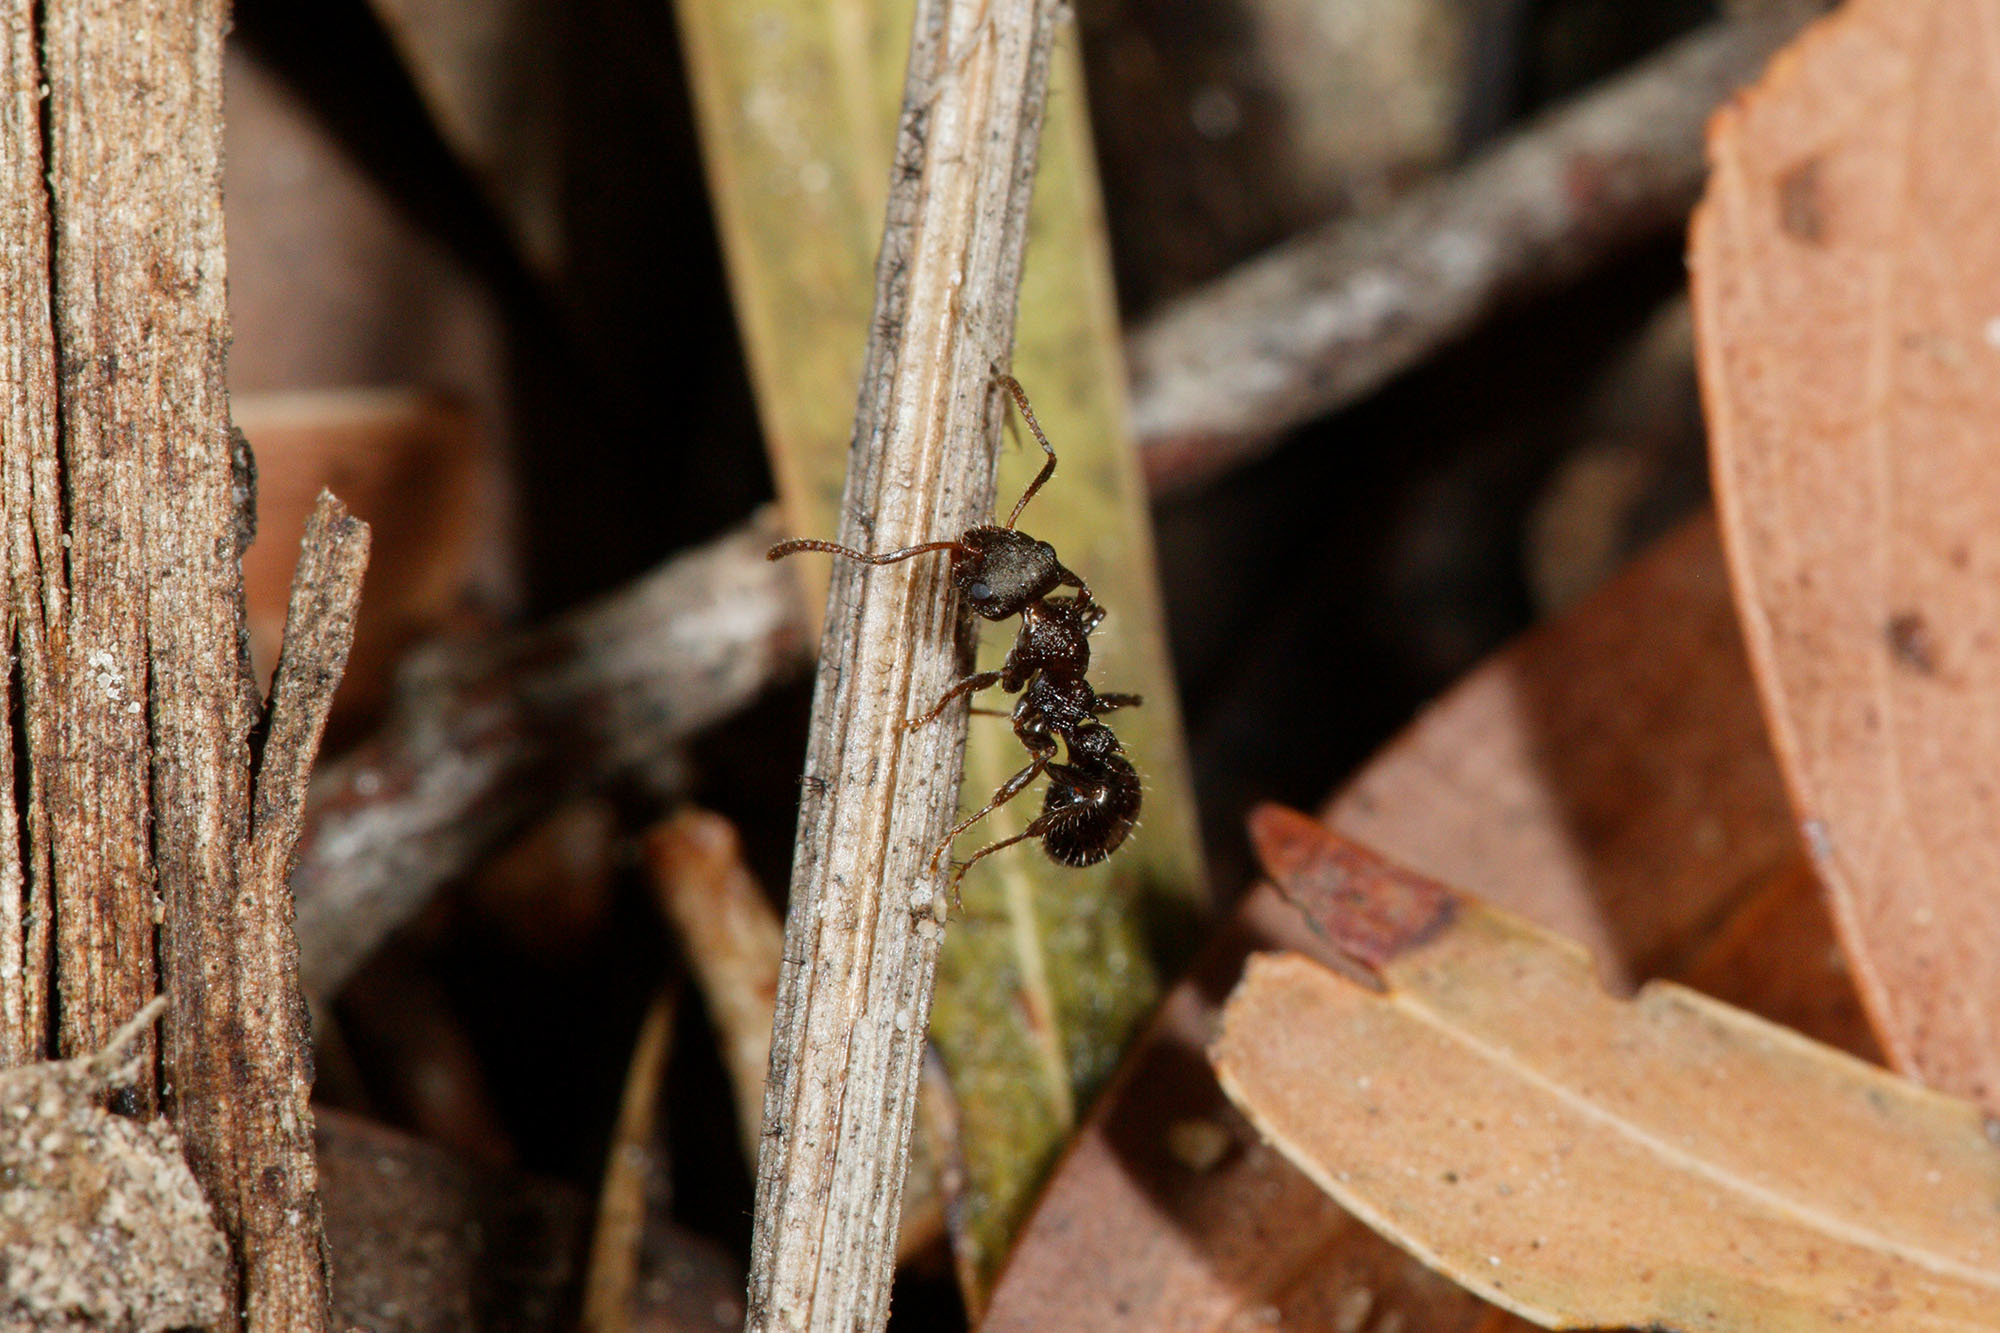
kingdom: Animalia
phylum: Arthropoda
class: Insecta
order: Hymenoptera
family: Formicidae
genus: Pseudonotoncus
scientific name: Pseudonotoncus eurysikos
